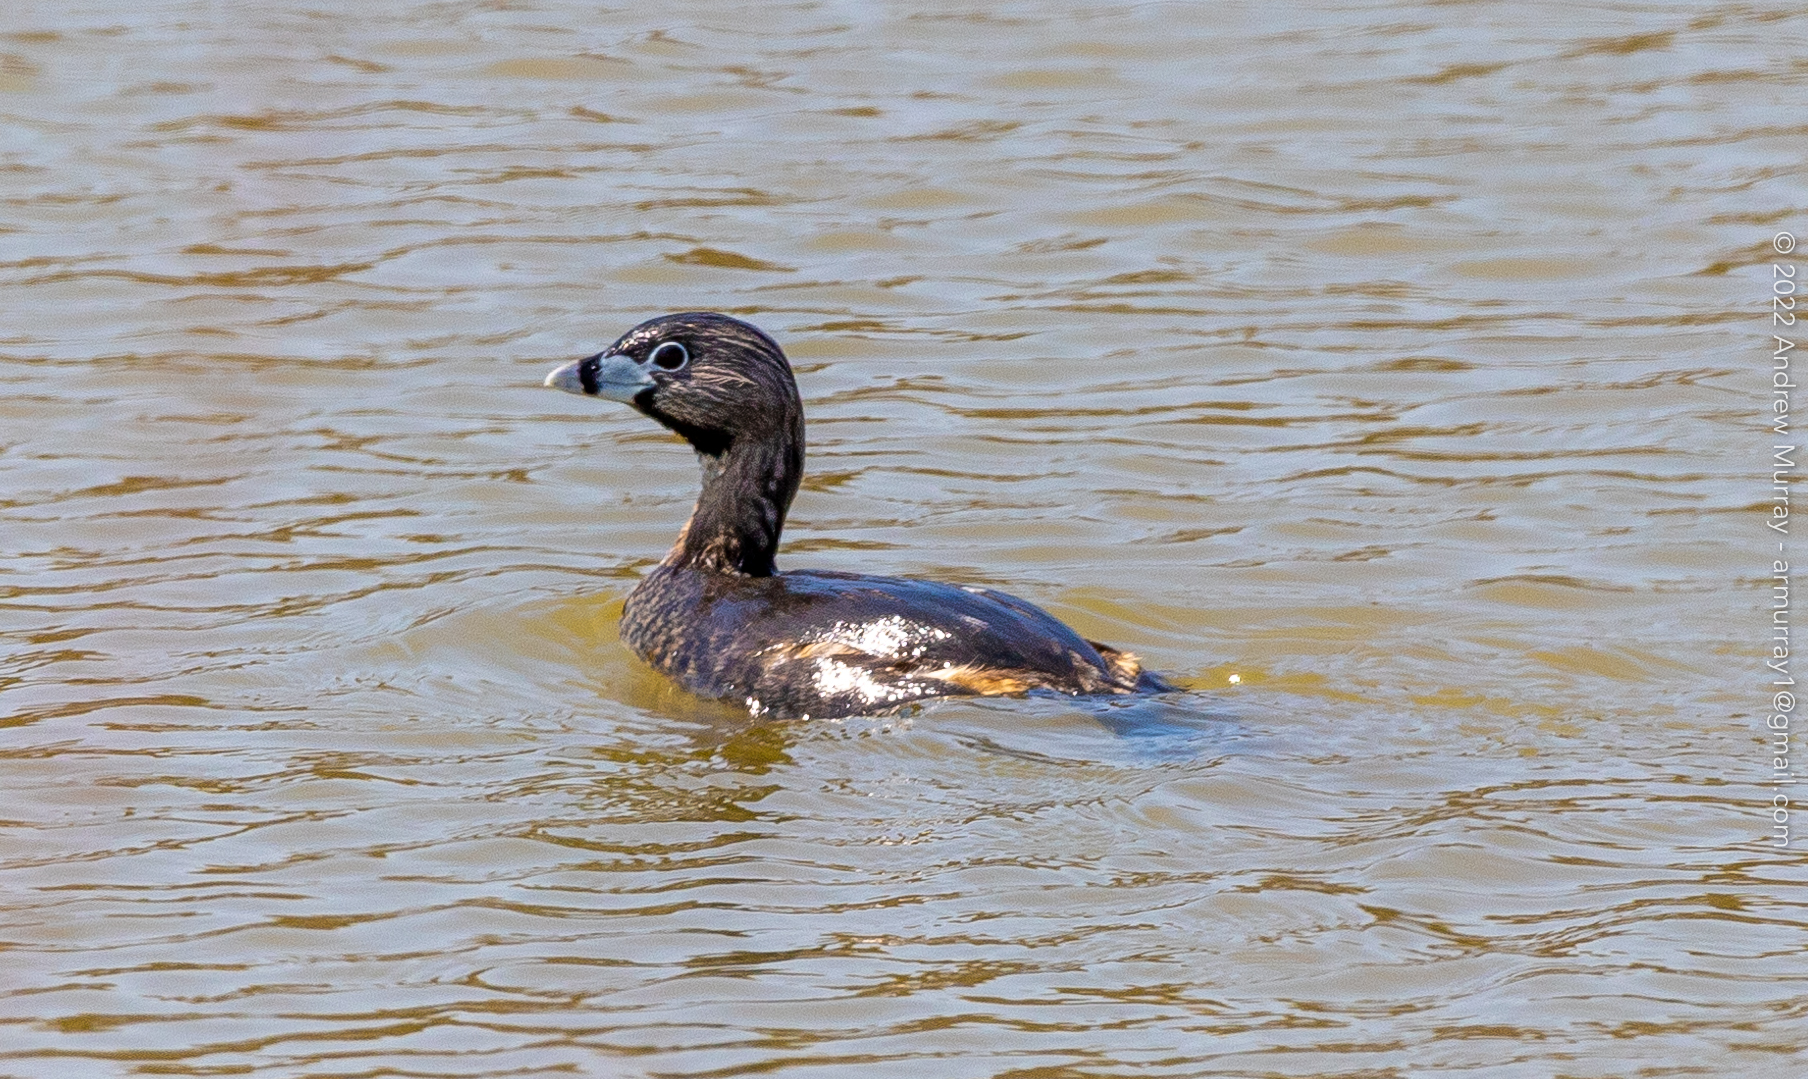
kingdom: Animalia
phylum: Chordata
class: Aves
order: Podicipediformes
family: Podicipedidae
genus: Podilymbus
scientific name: Podilymbus podiceps
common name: Pied-billed grebe
